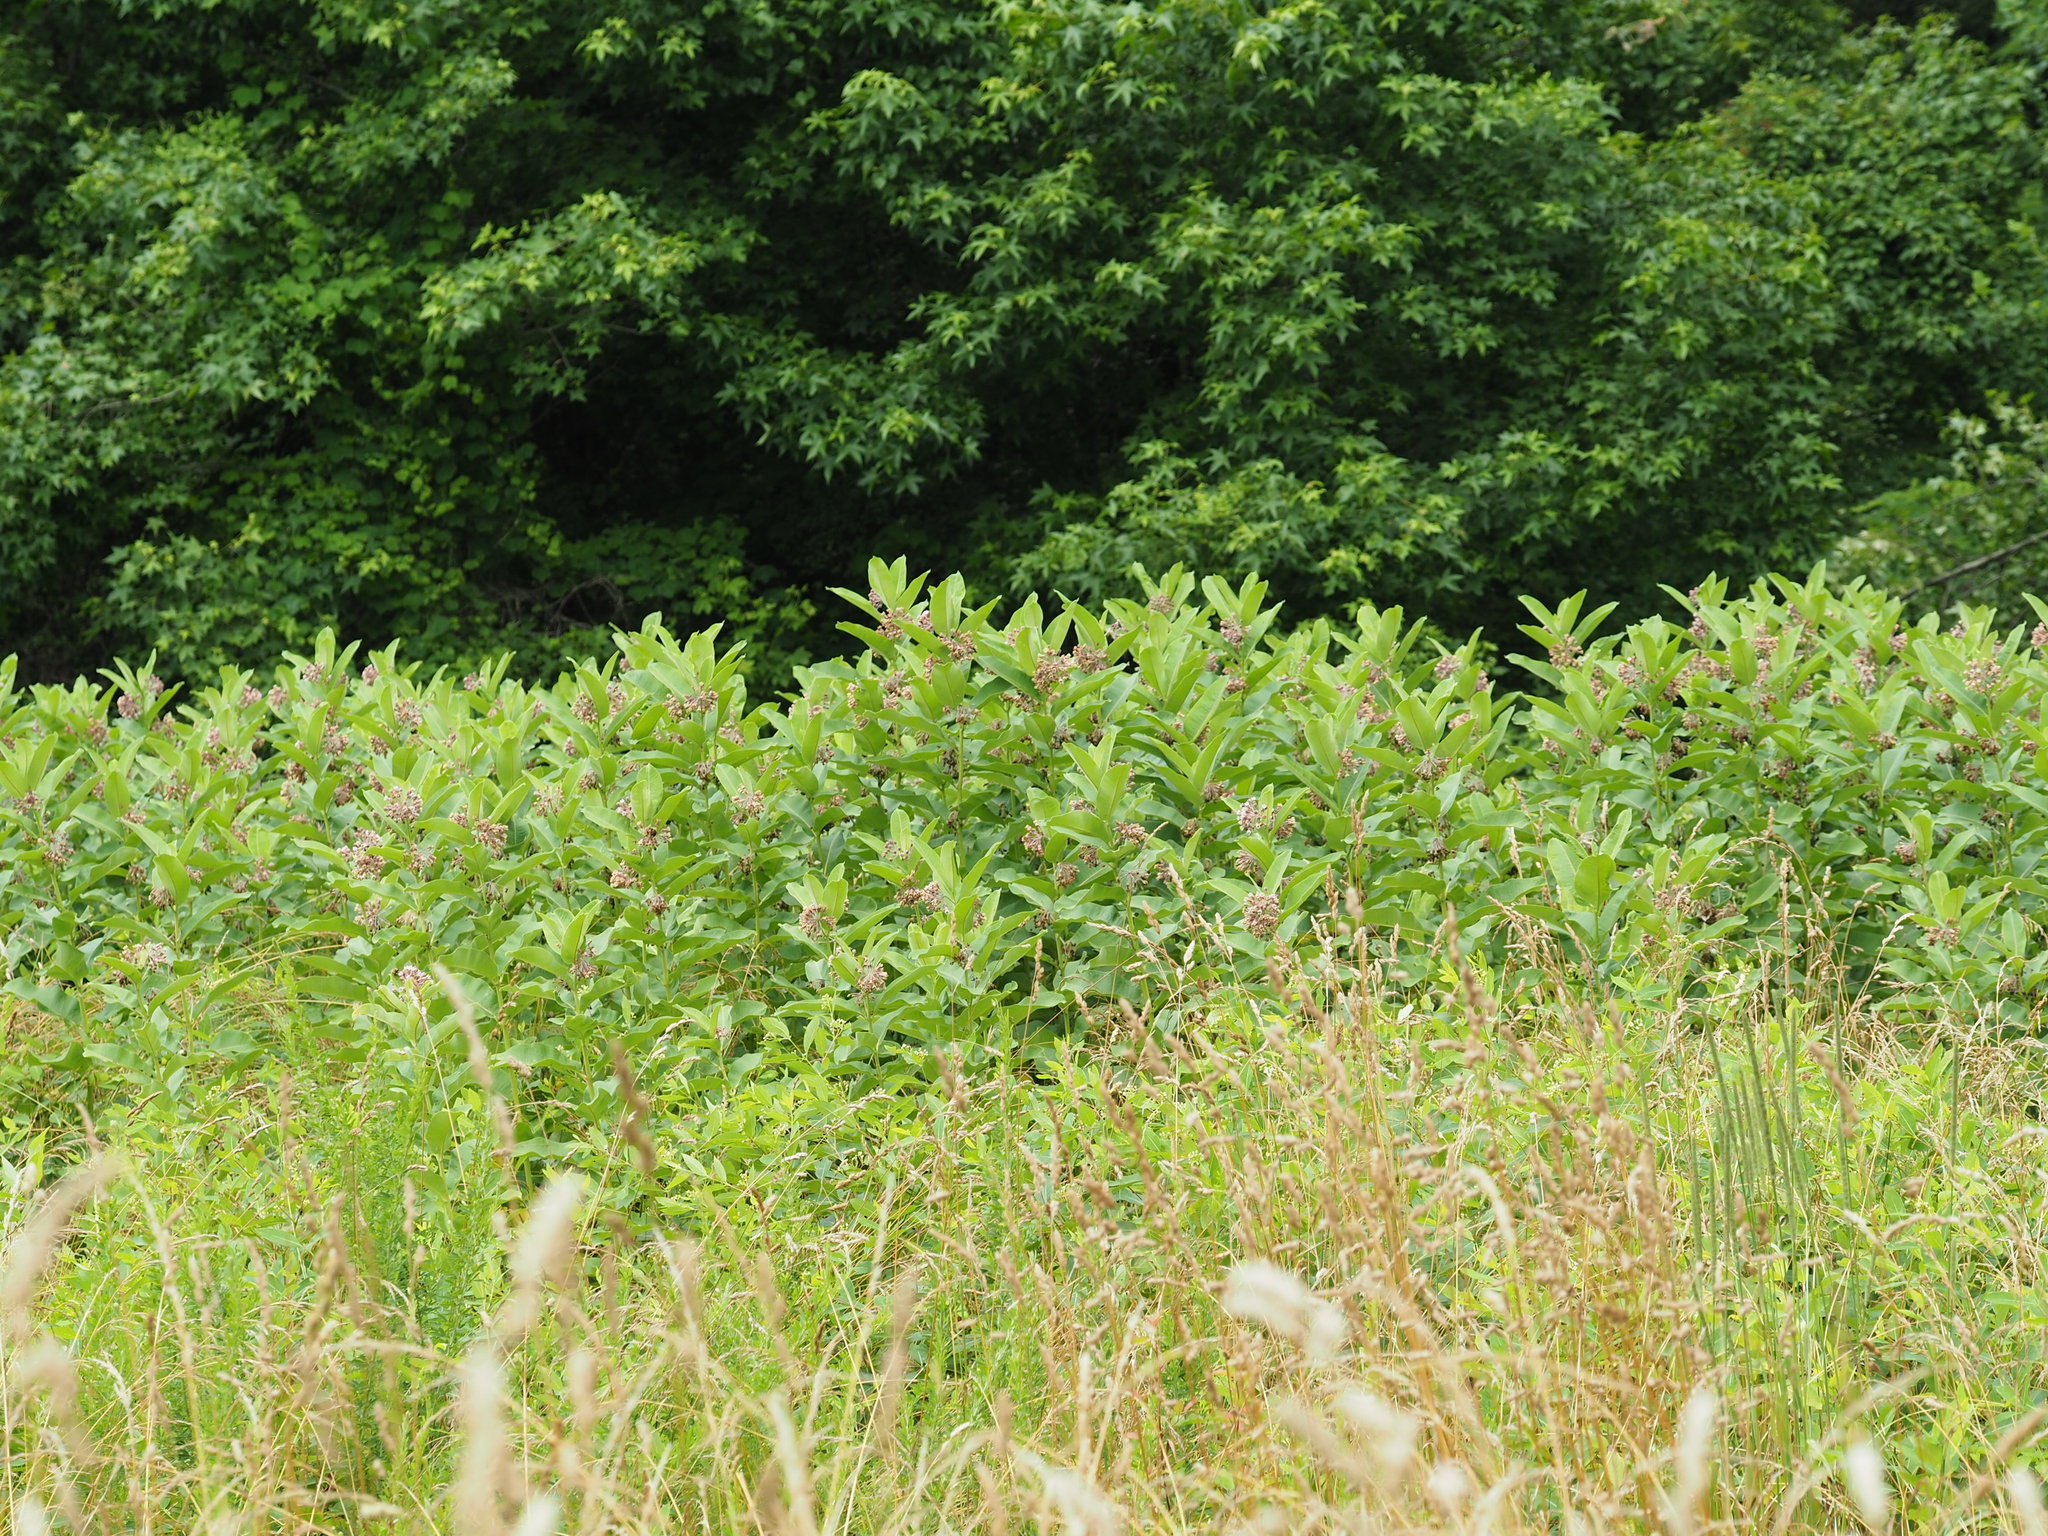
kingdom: Plantae
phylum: Tracheophyta
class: Magnoliopsida
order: Gentianales
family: Apocynaceae
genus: Asclepias
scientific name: Asclepias syriaca
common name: Common milkweed
